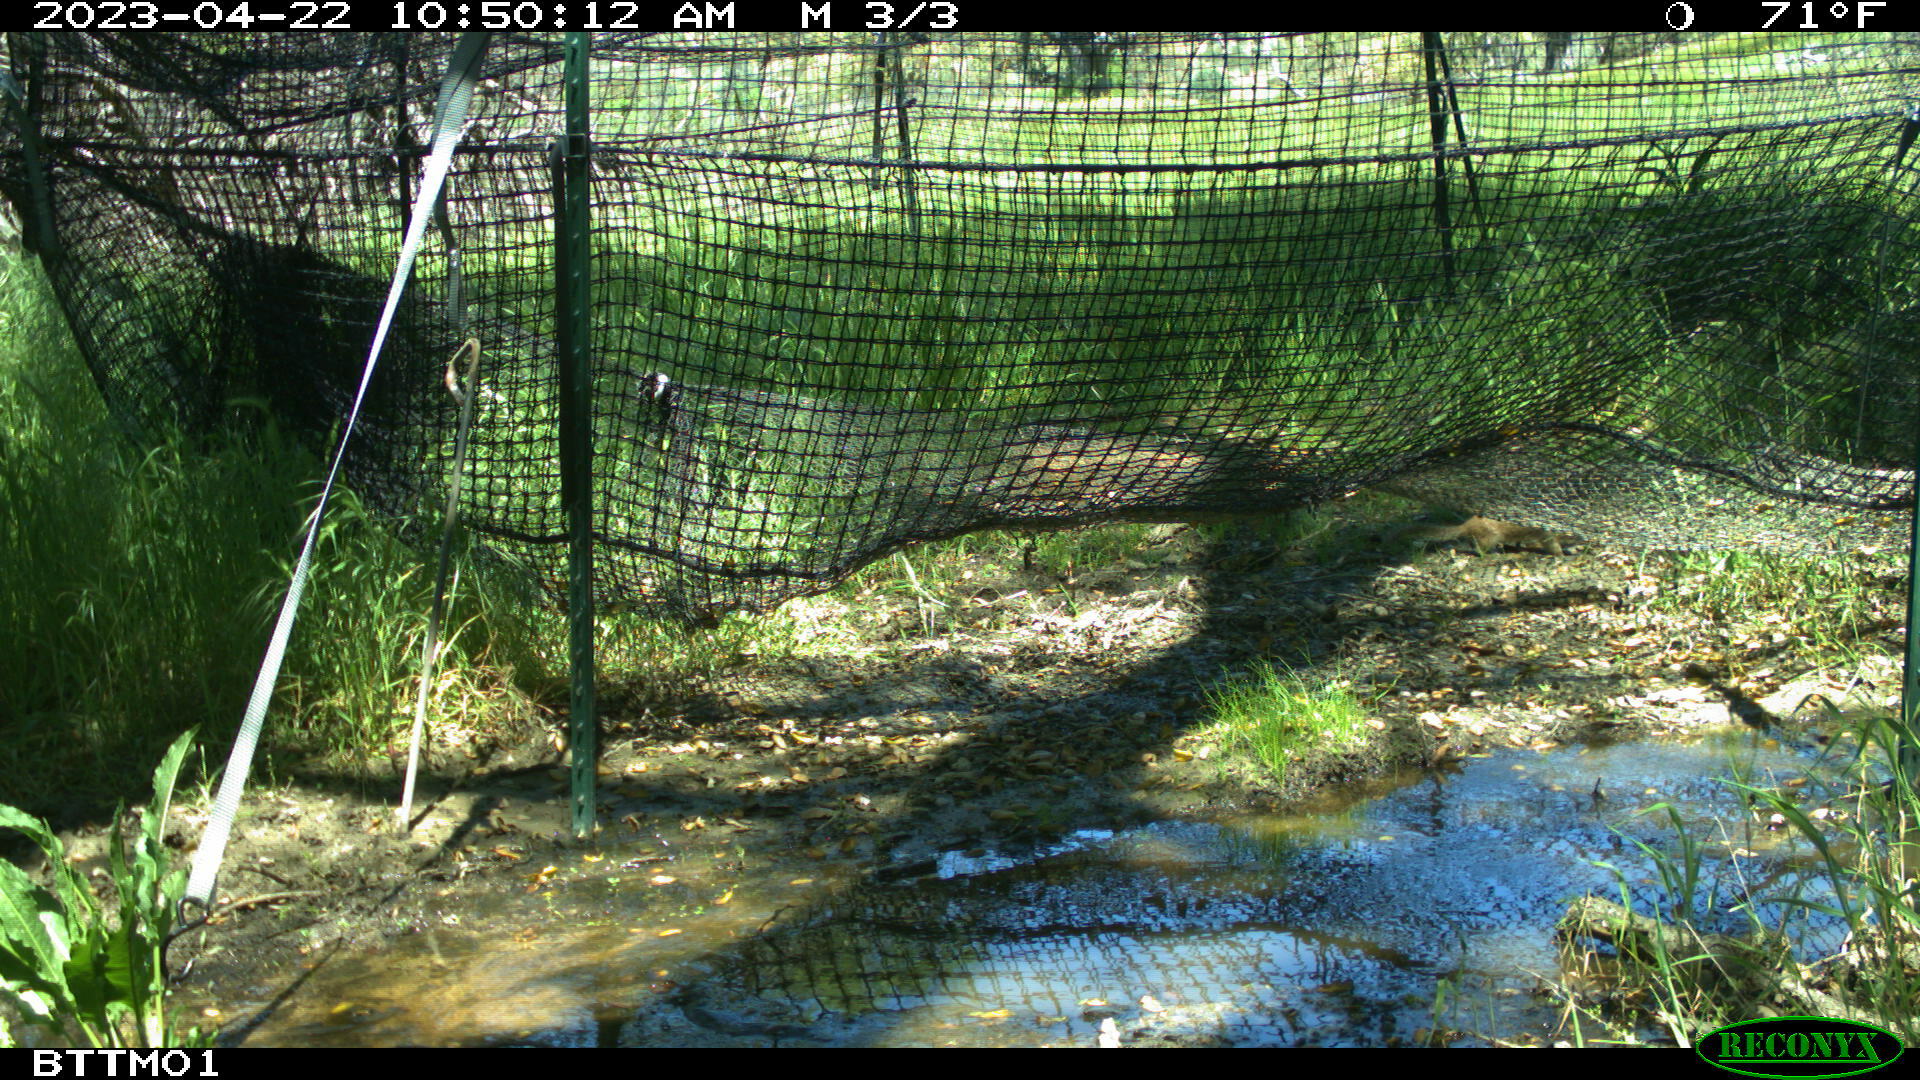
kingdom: Animalia
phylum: Chordata
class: Mammalia
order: Rodentia
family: Sciuridae
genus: Otospermophilus
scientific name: Otospermophilus beecheyi
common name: California ground squirrel
